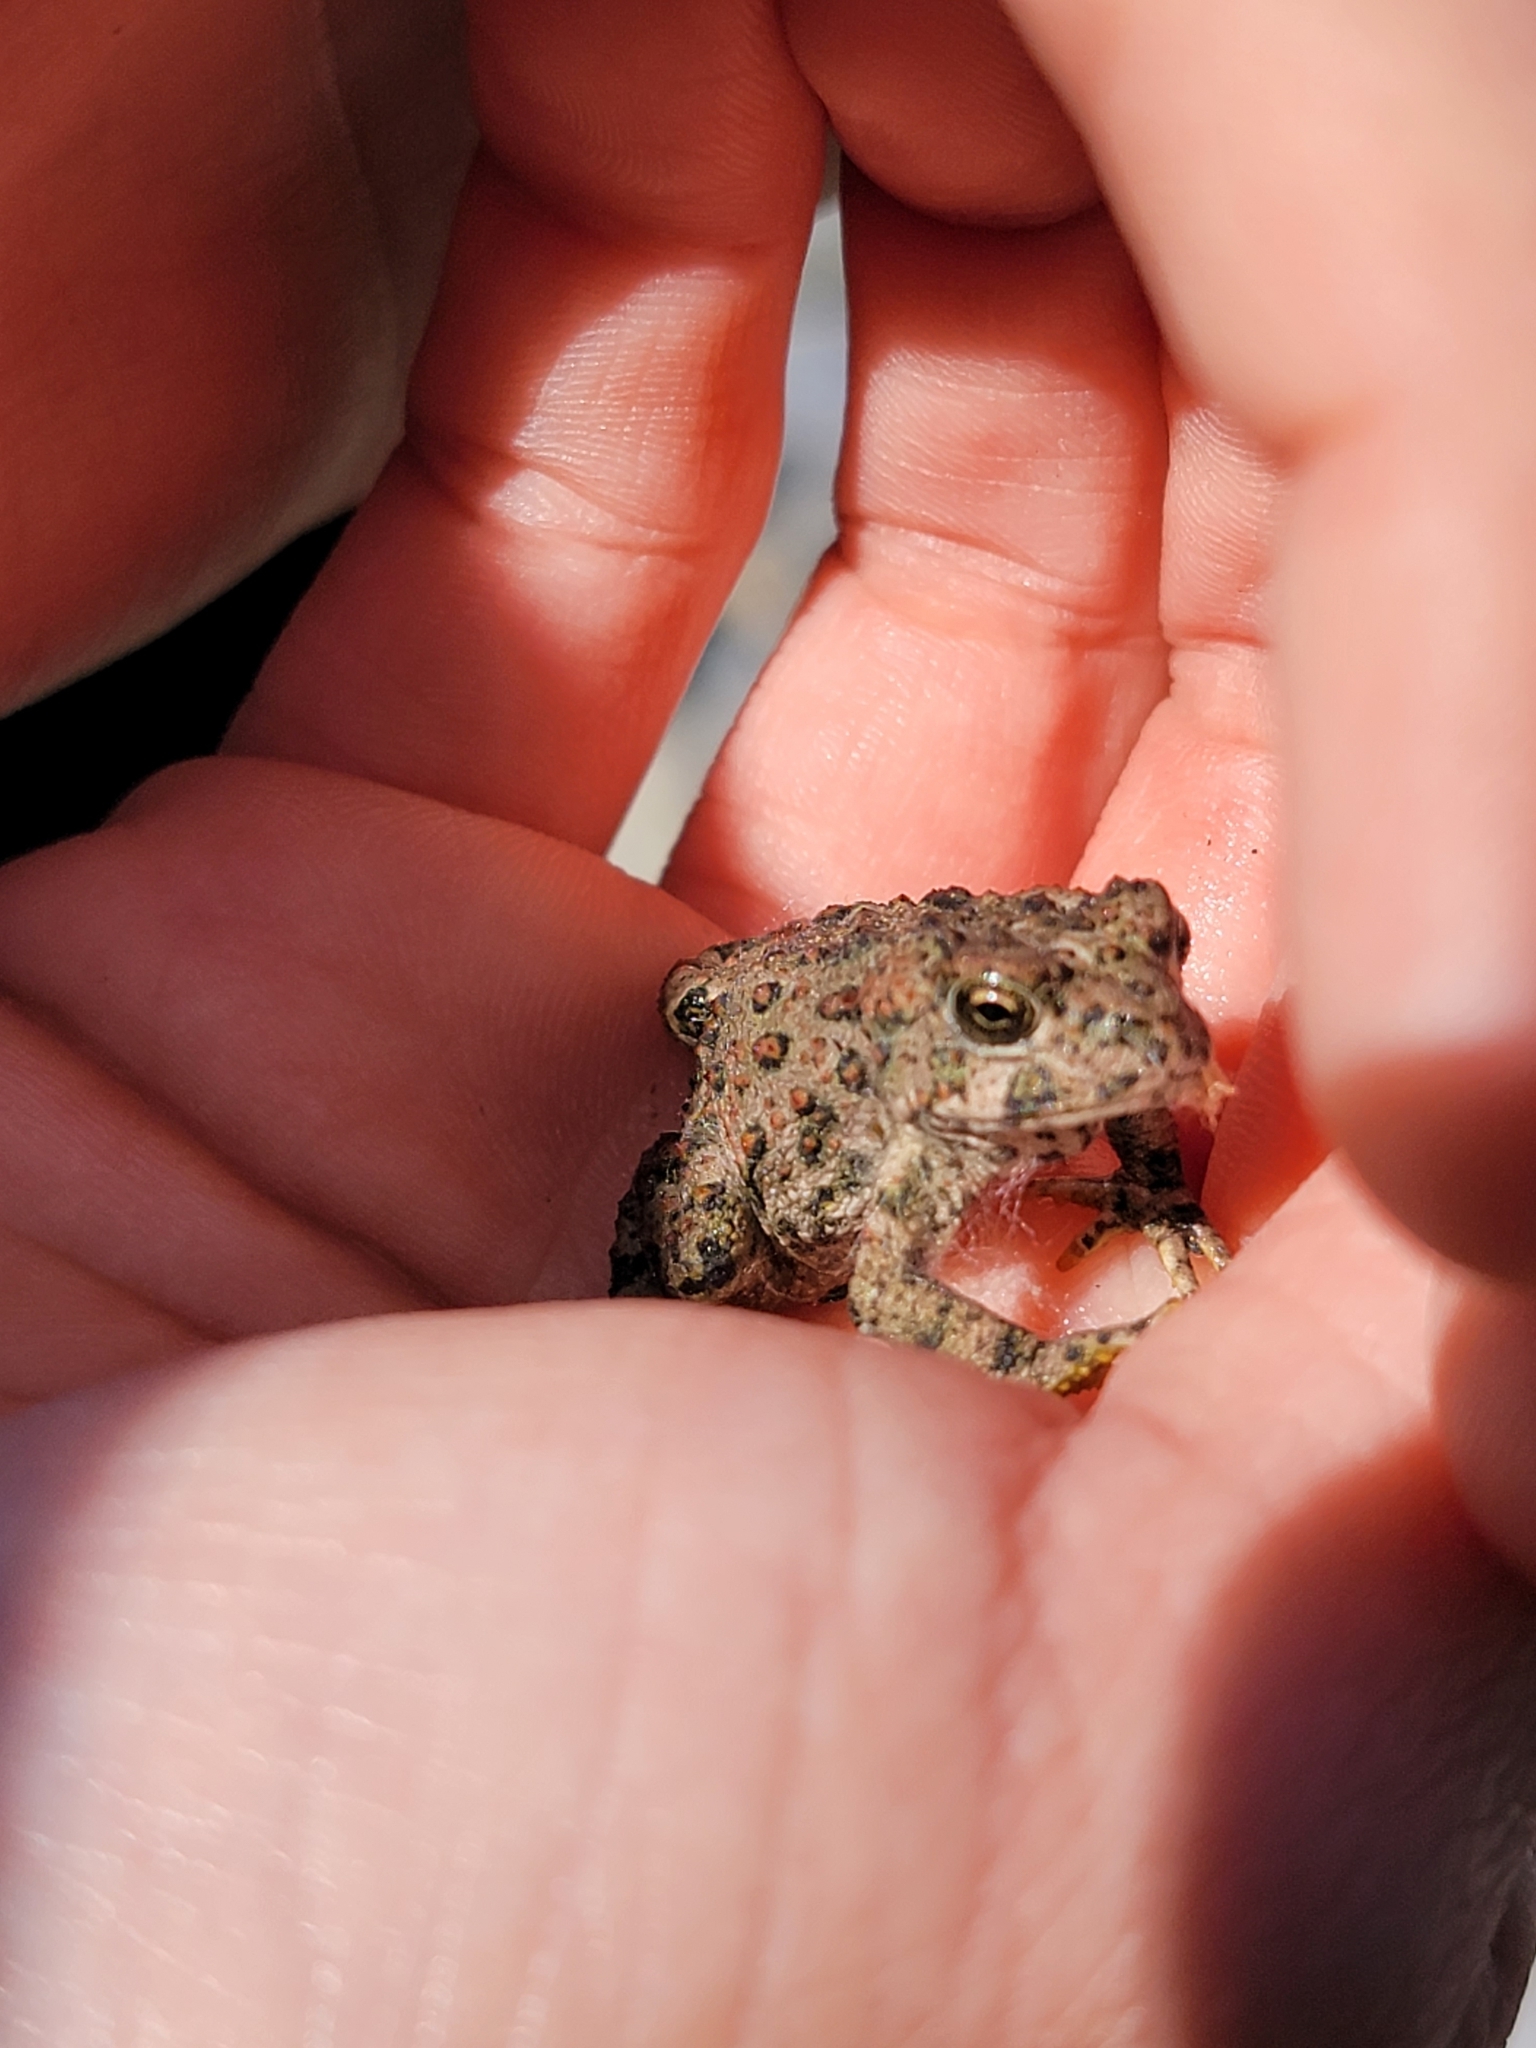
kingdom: Animalia
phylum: Chordata
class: Amphibia
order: Anura
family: Bufonidae
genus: Anaxyrus
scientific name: Anaxyrus boreas
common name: Western toad
